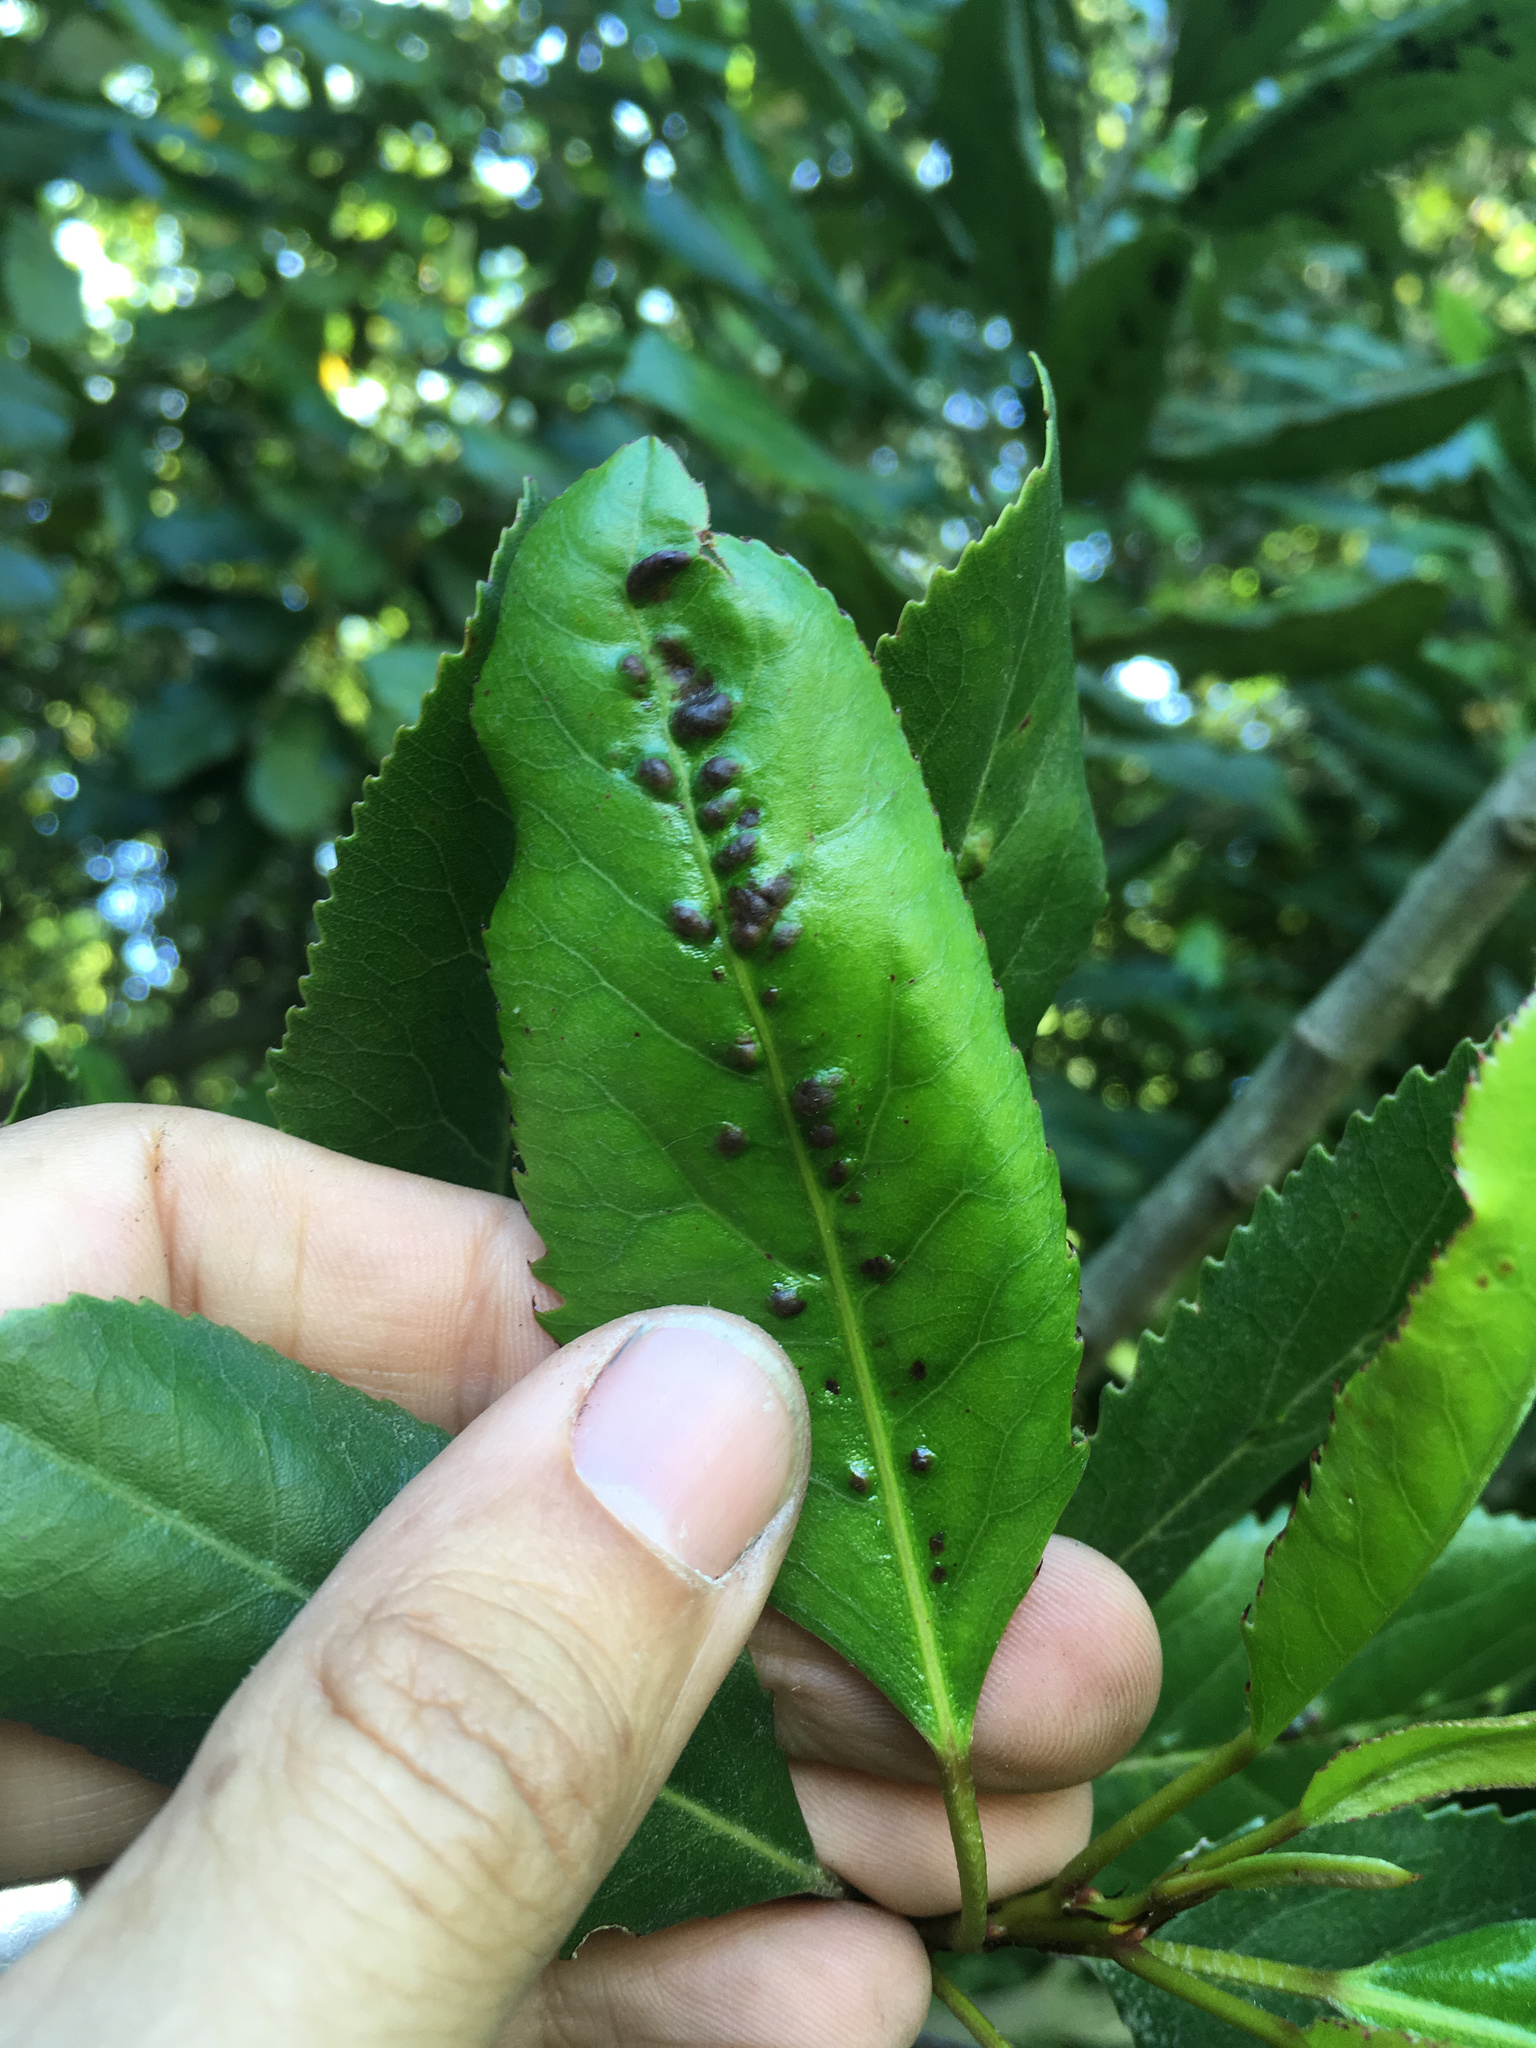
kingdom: Animalia
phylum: Arthropoda
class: Arachnida
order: Trombidiformes
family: Eriophyidae
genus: Aceria
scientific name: Aceria
